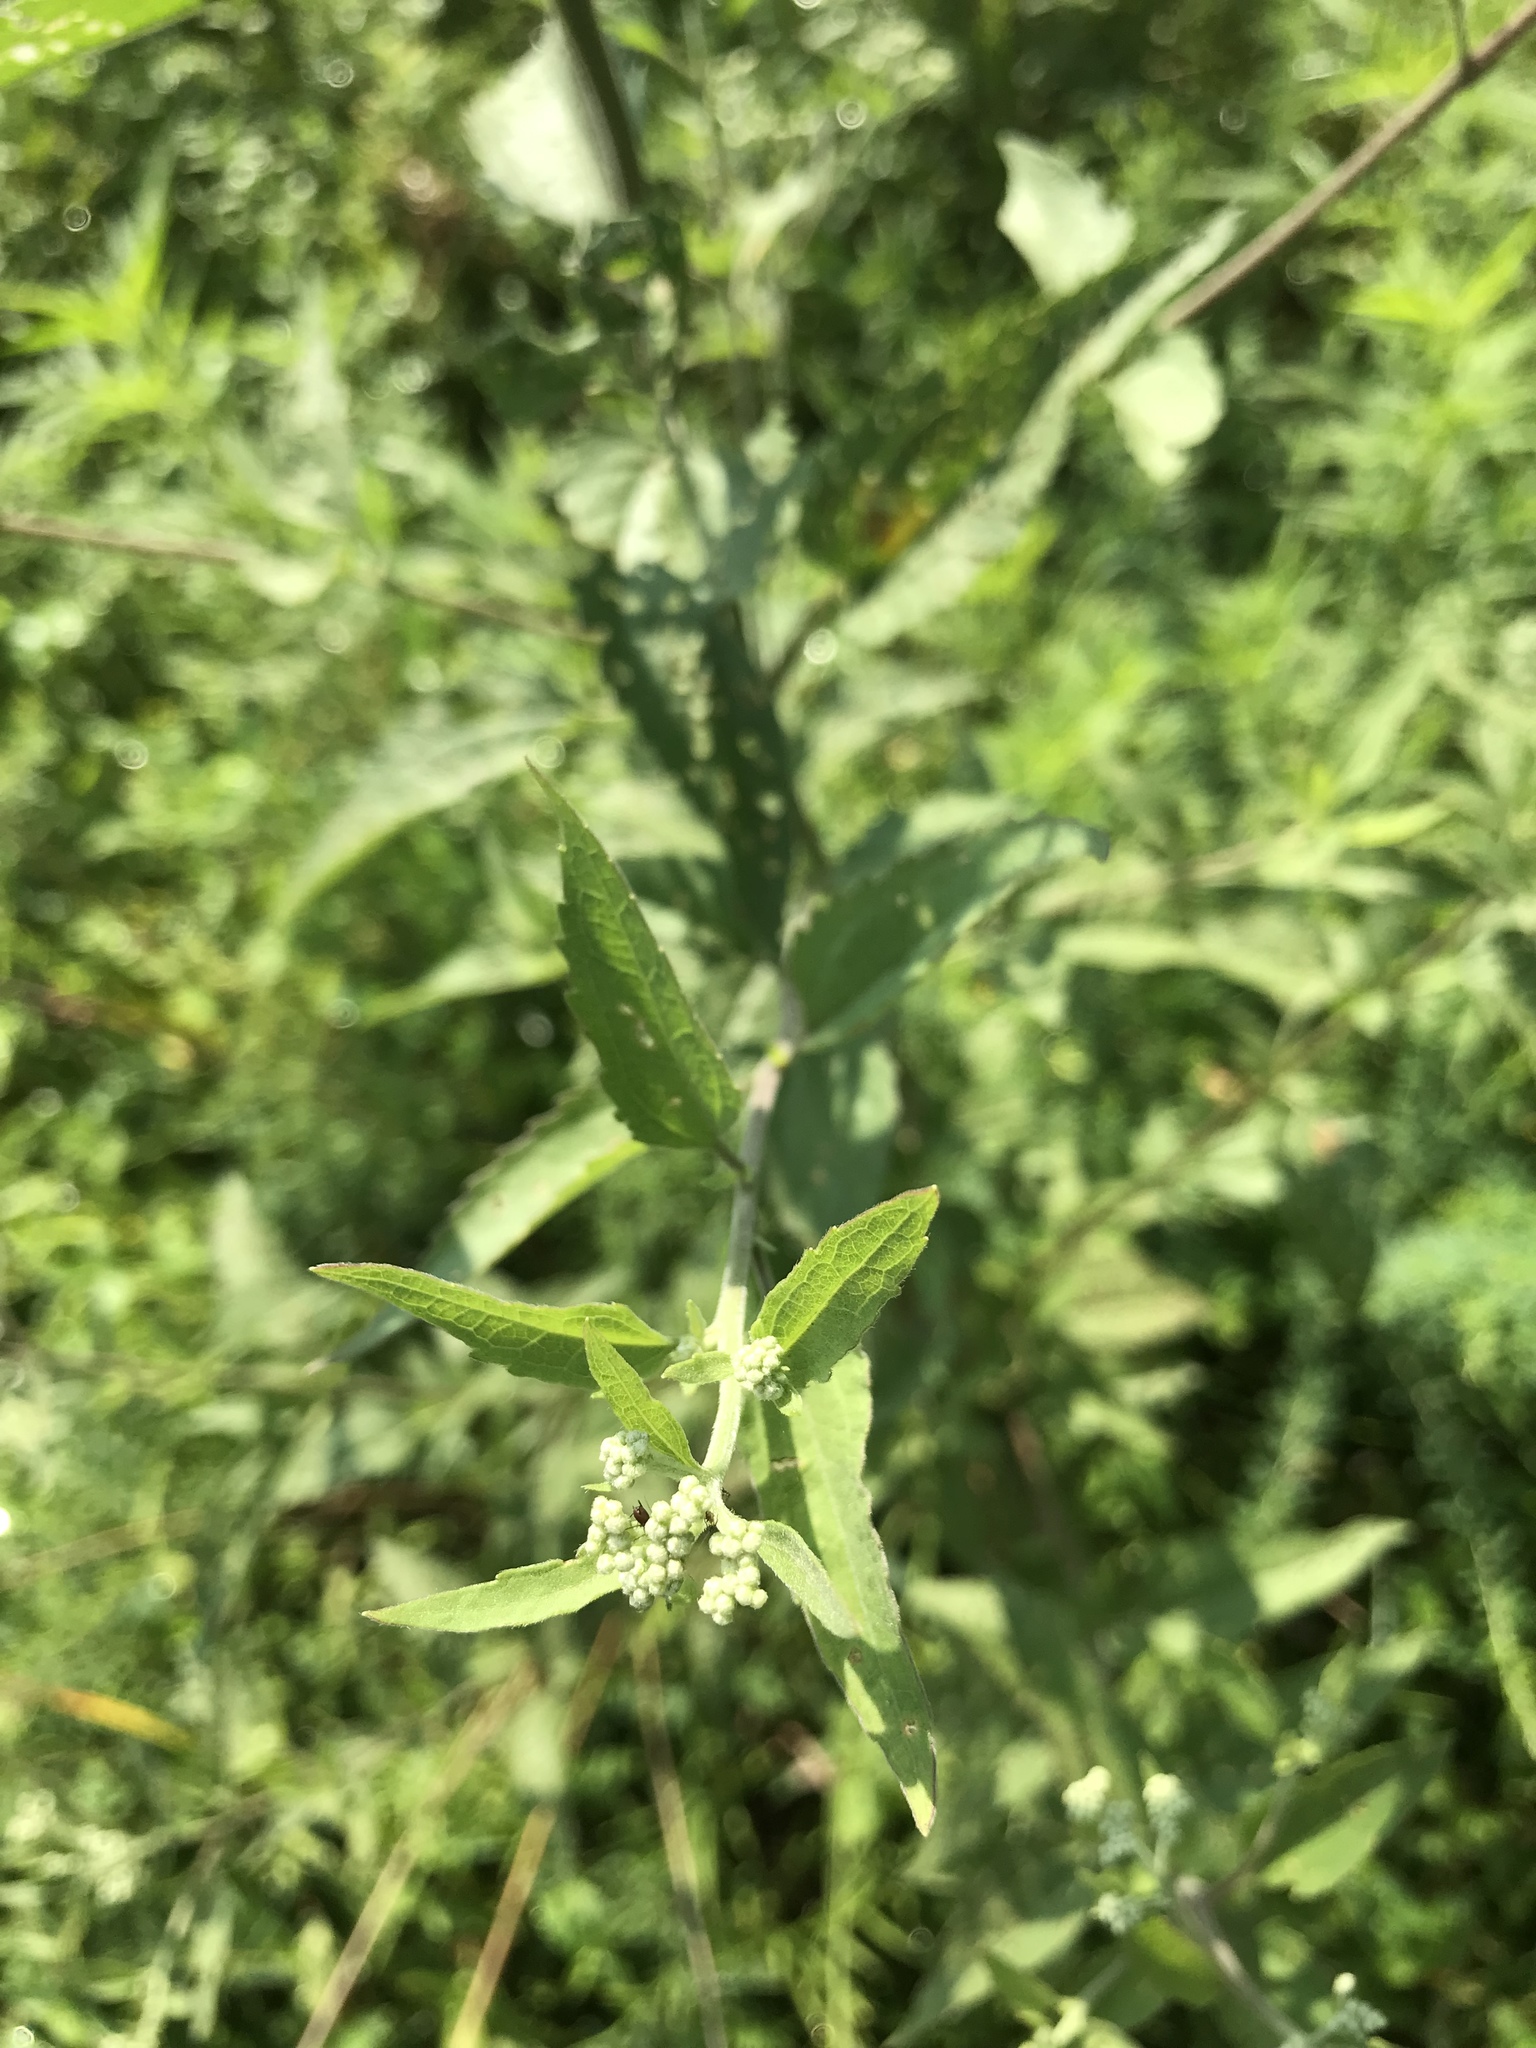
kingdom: Plantae
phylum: Tracheophyta
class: Magnoliopsida
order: Asterales
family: Asteraceae
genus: Eupatorium
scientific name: Eupatorium serotinum
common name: Late boneset
